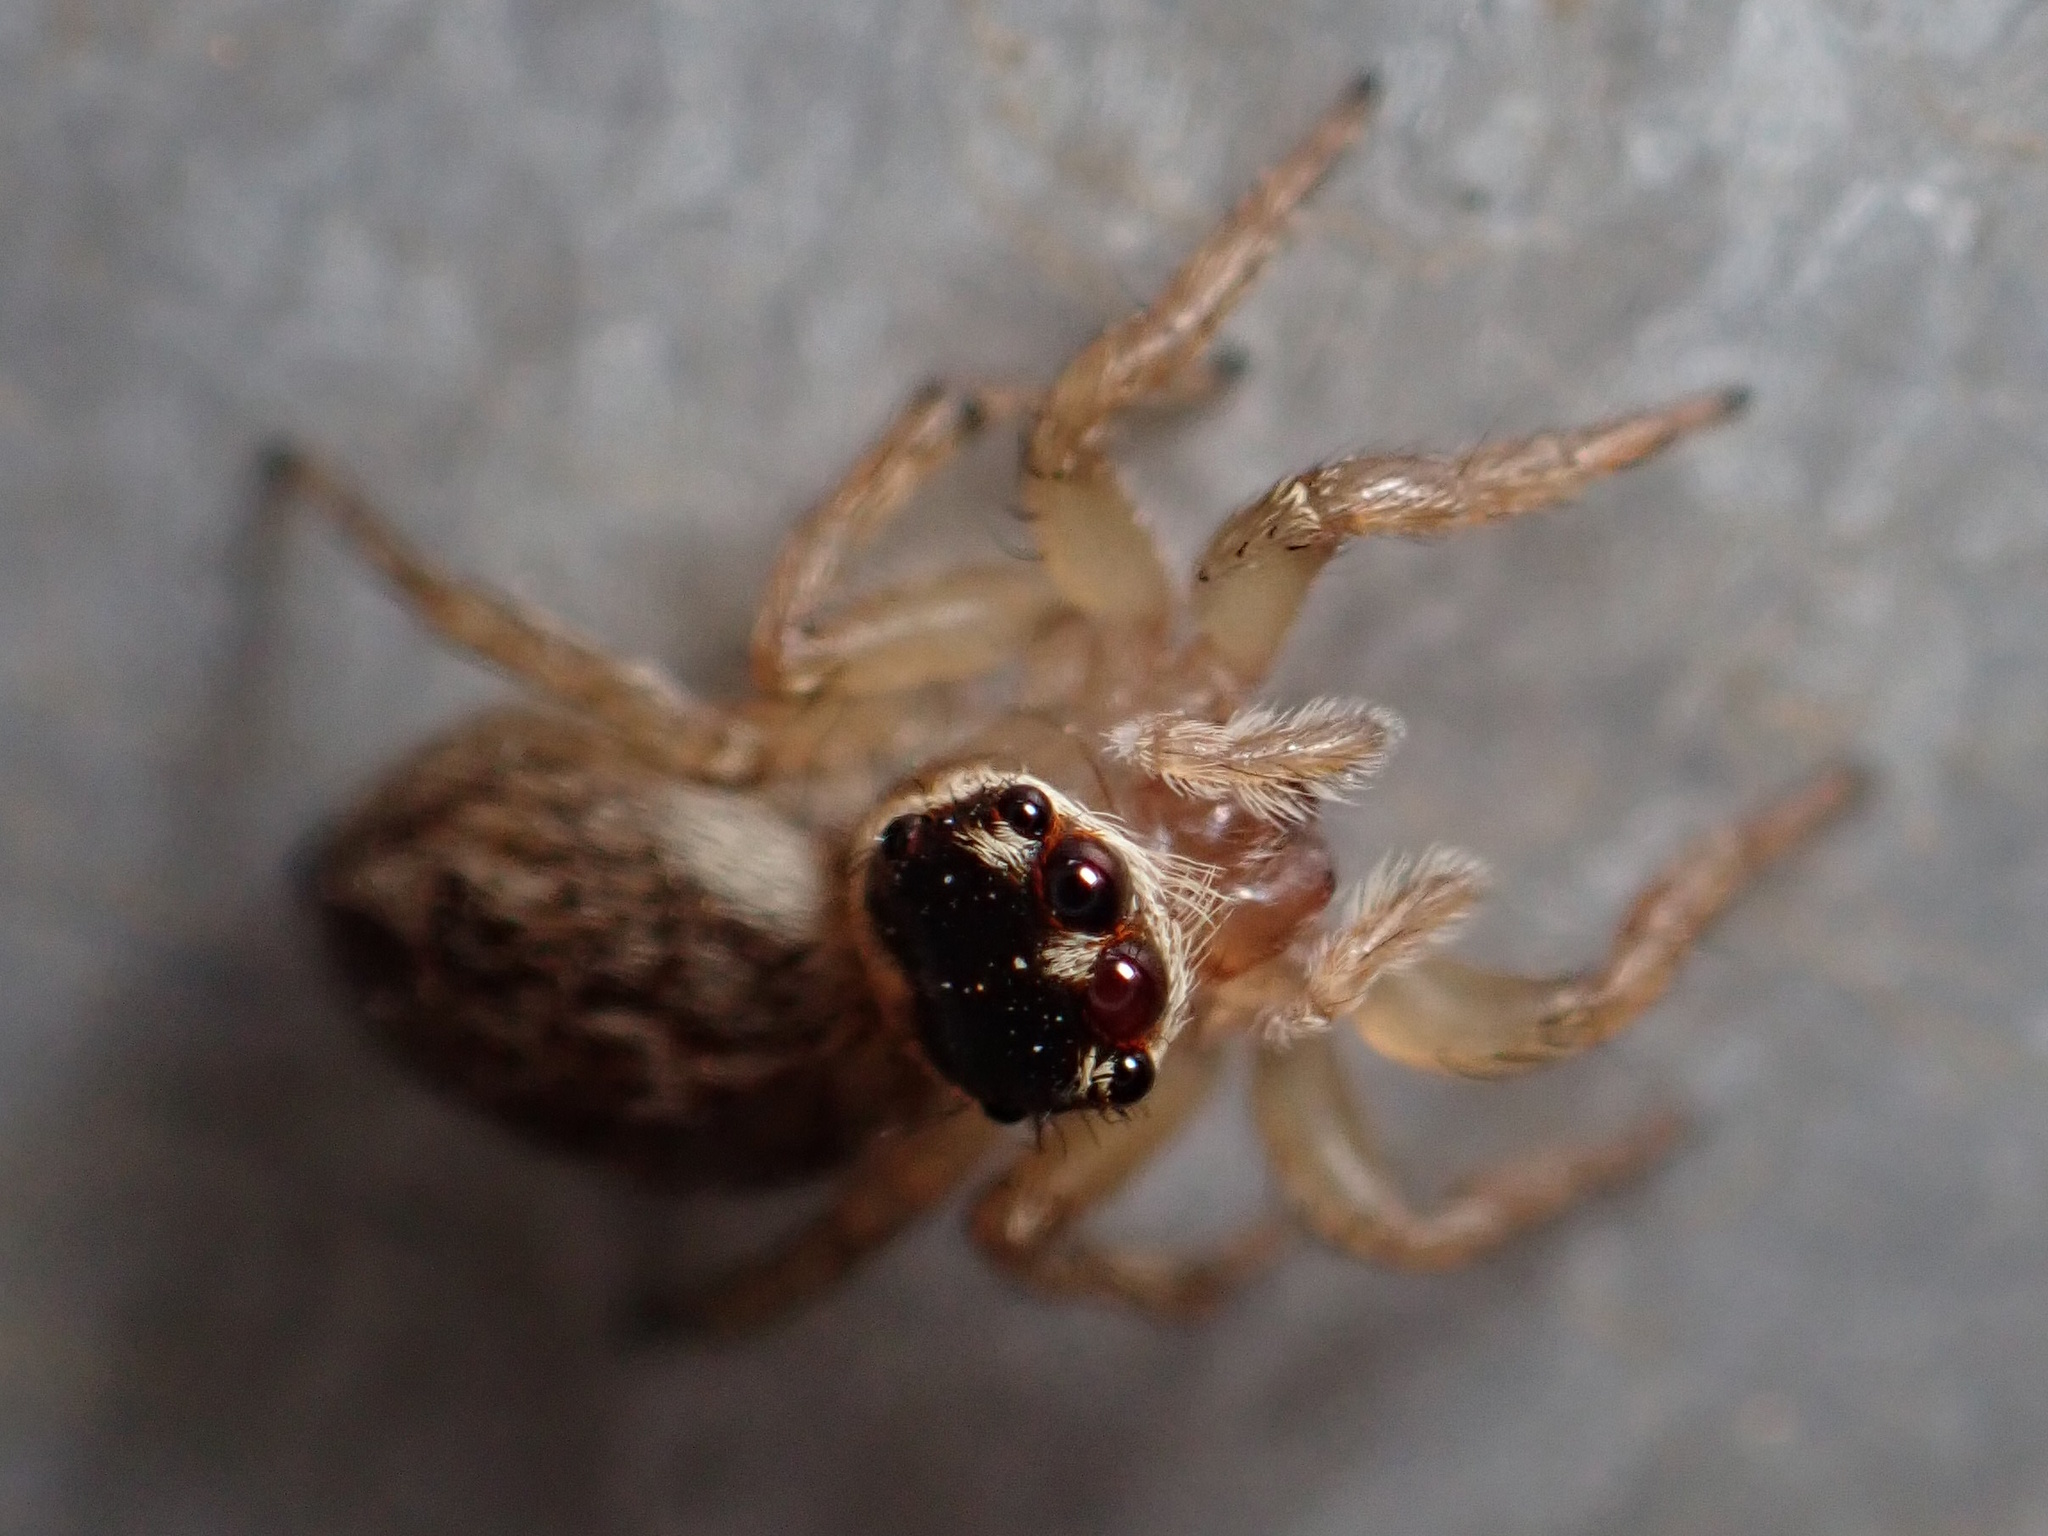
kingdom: Animalia
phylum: Arthropoda
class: Arachnida
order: Araneae
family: Salticidae
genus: Maratus
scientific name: Maratus griseus
